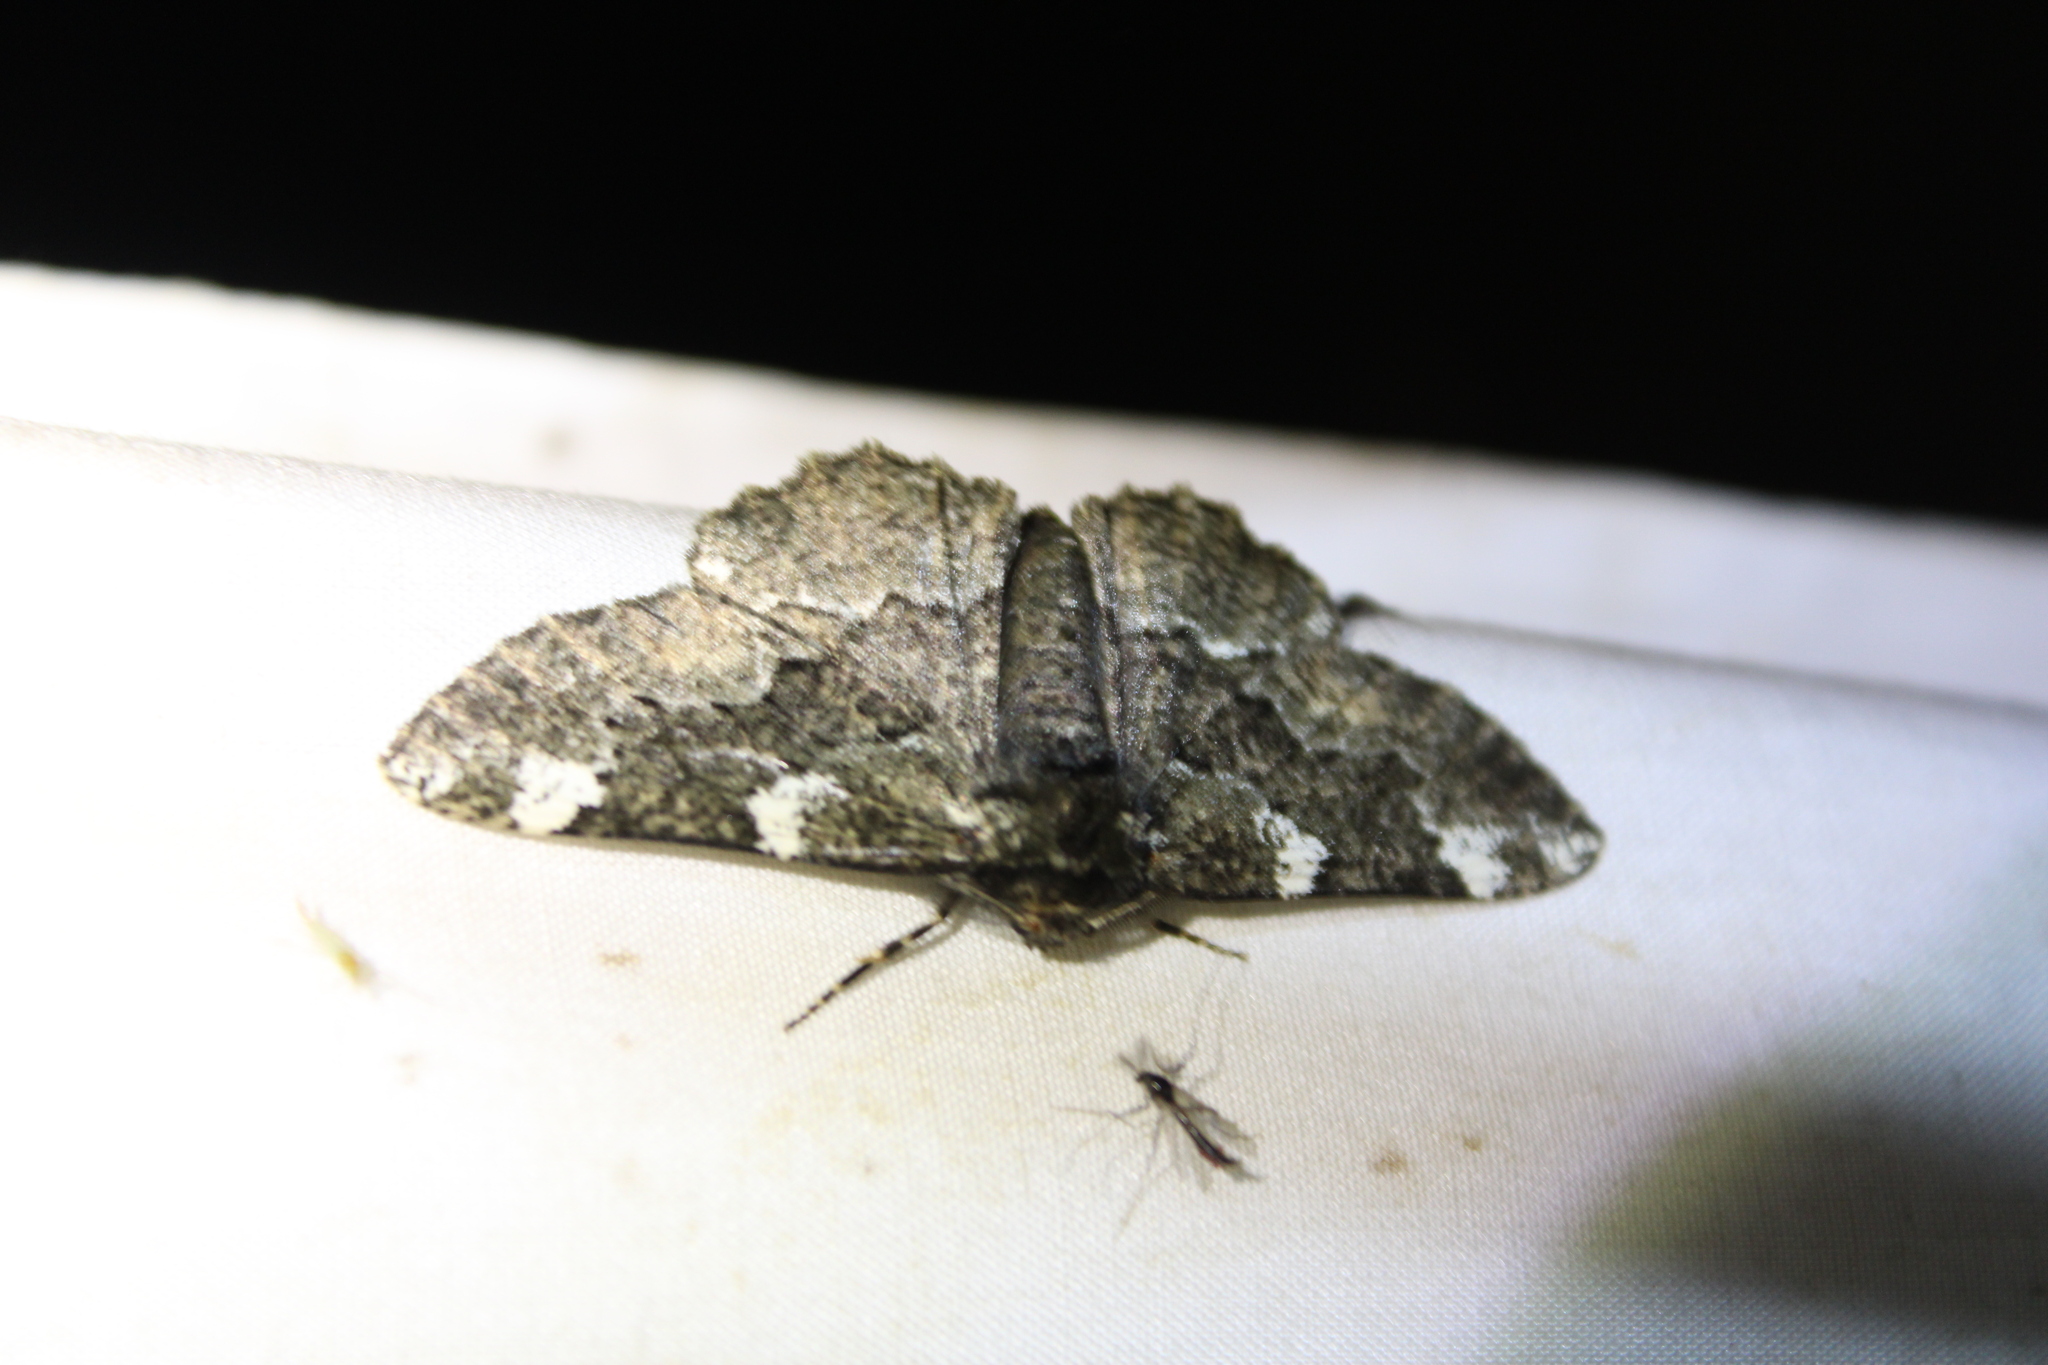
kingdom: Animalia
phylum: Arthropoda
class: Insecta
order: Lepidoptera
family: Geometridae
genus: Phaeoura
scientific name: Phaeoura quernaria
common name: Oak beauty
